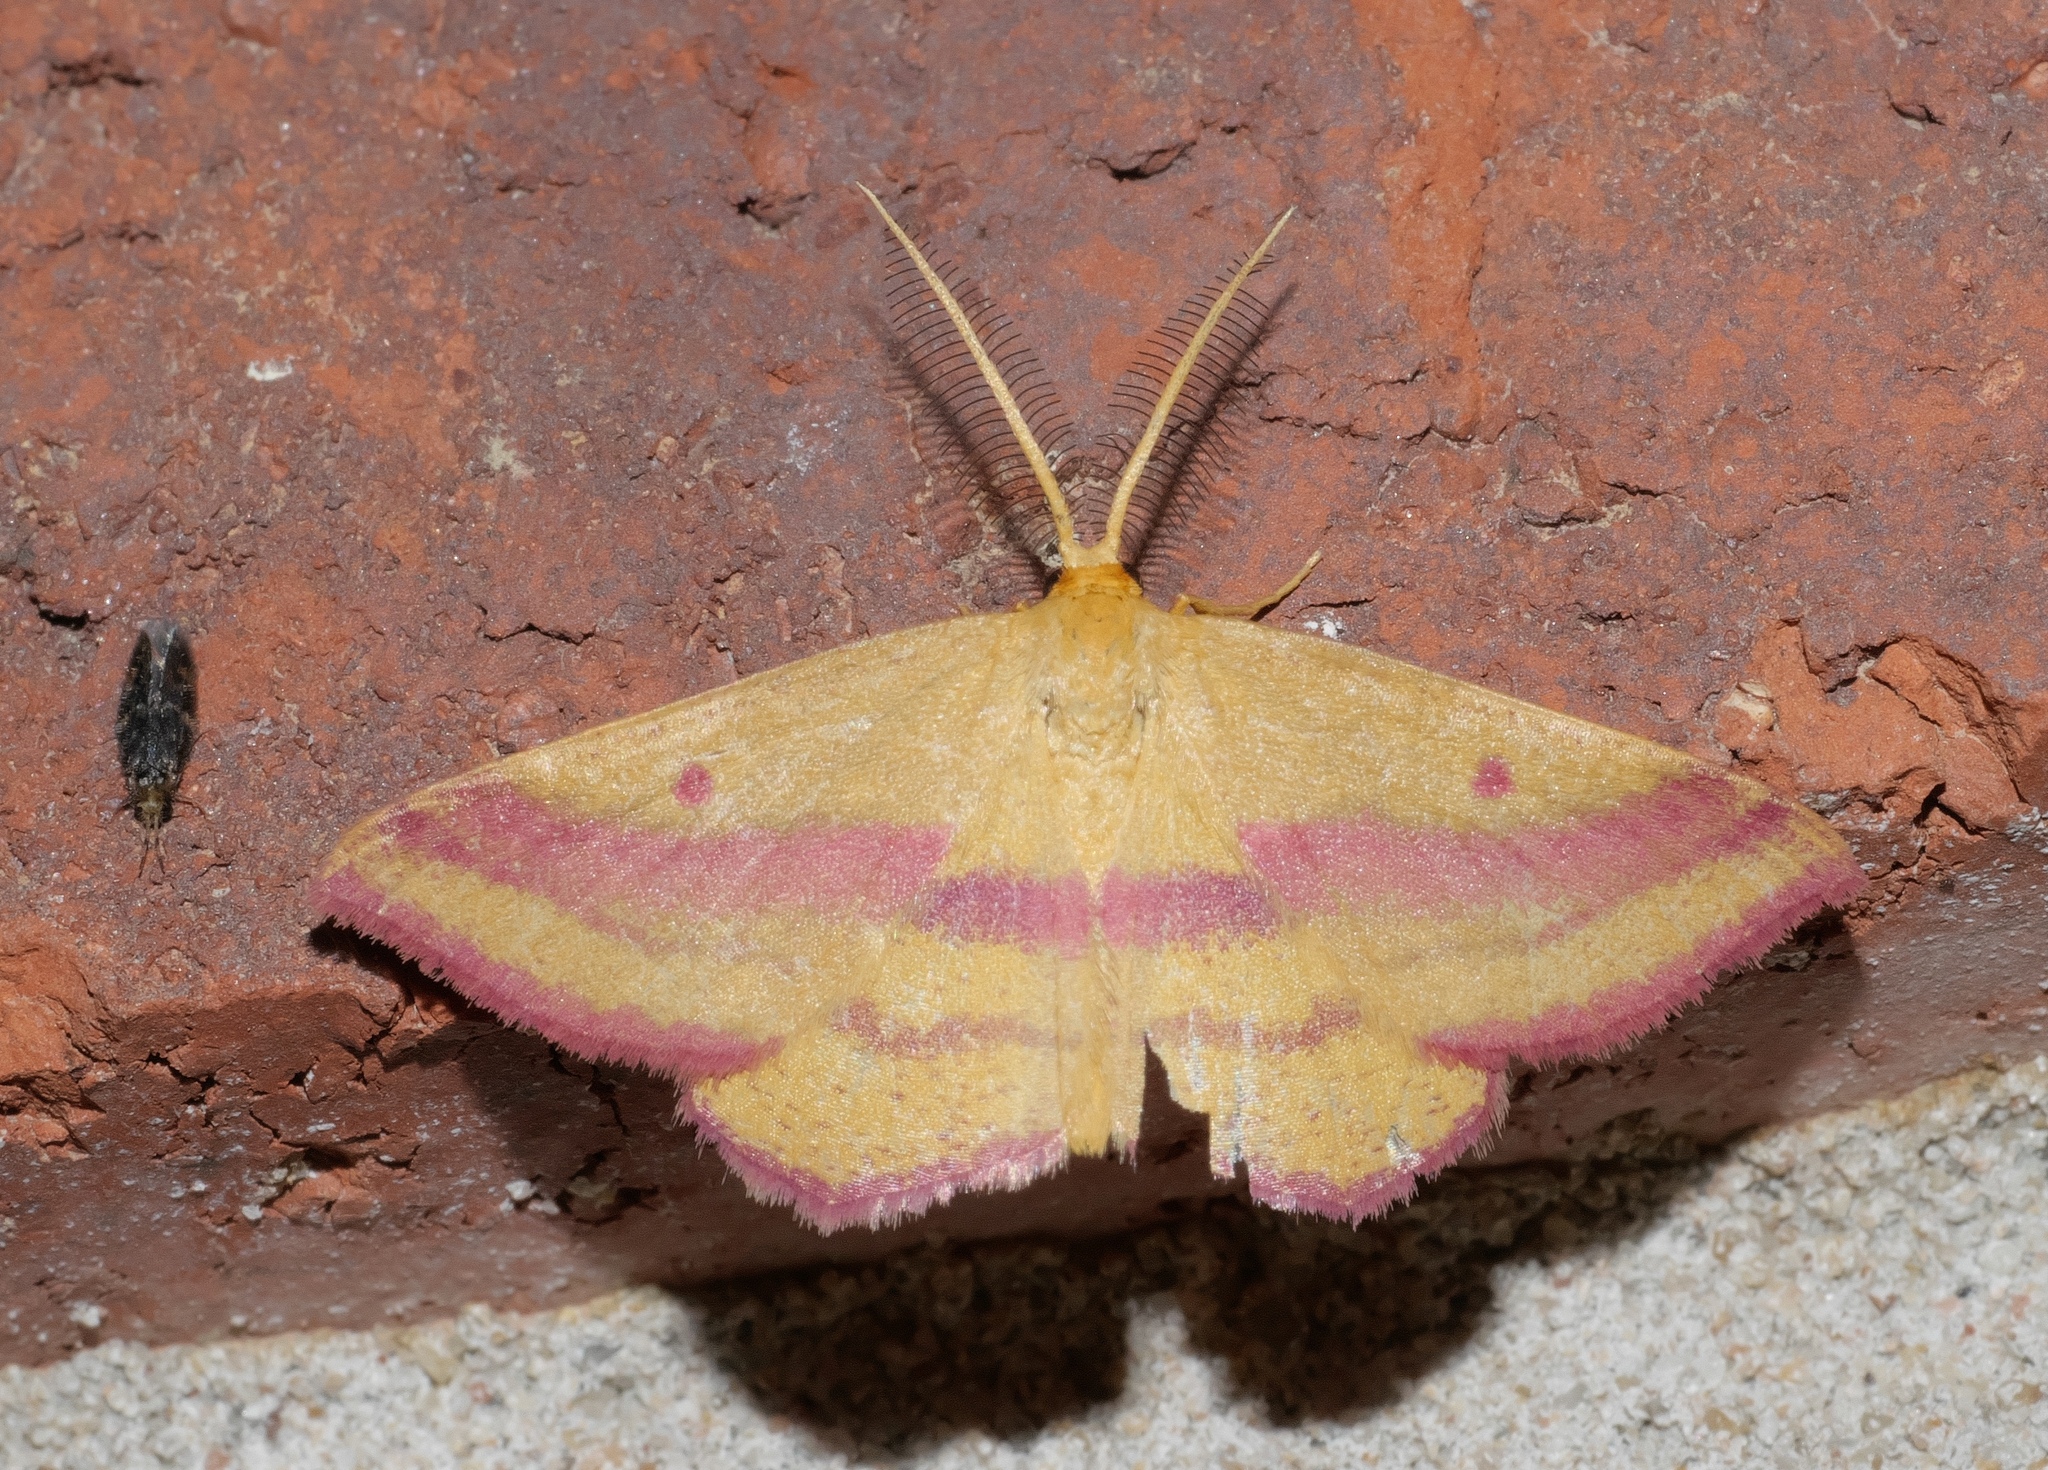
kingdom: Animalia
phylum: Arthropoda
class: Insecta
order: Lepidoptera
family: Geometridae
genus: Haematopis
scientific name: Haematopis grataria
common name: Chickweed geometer
